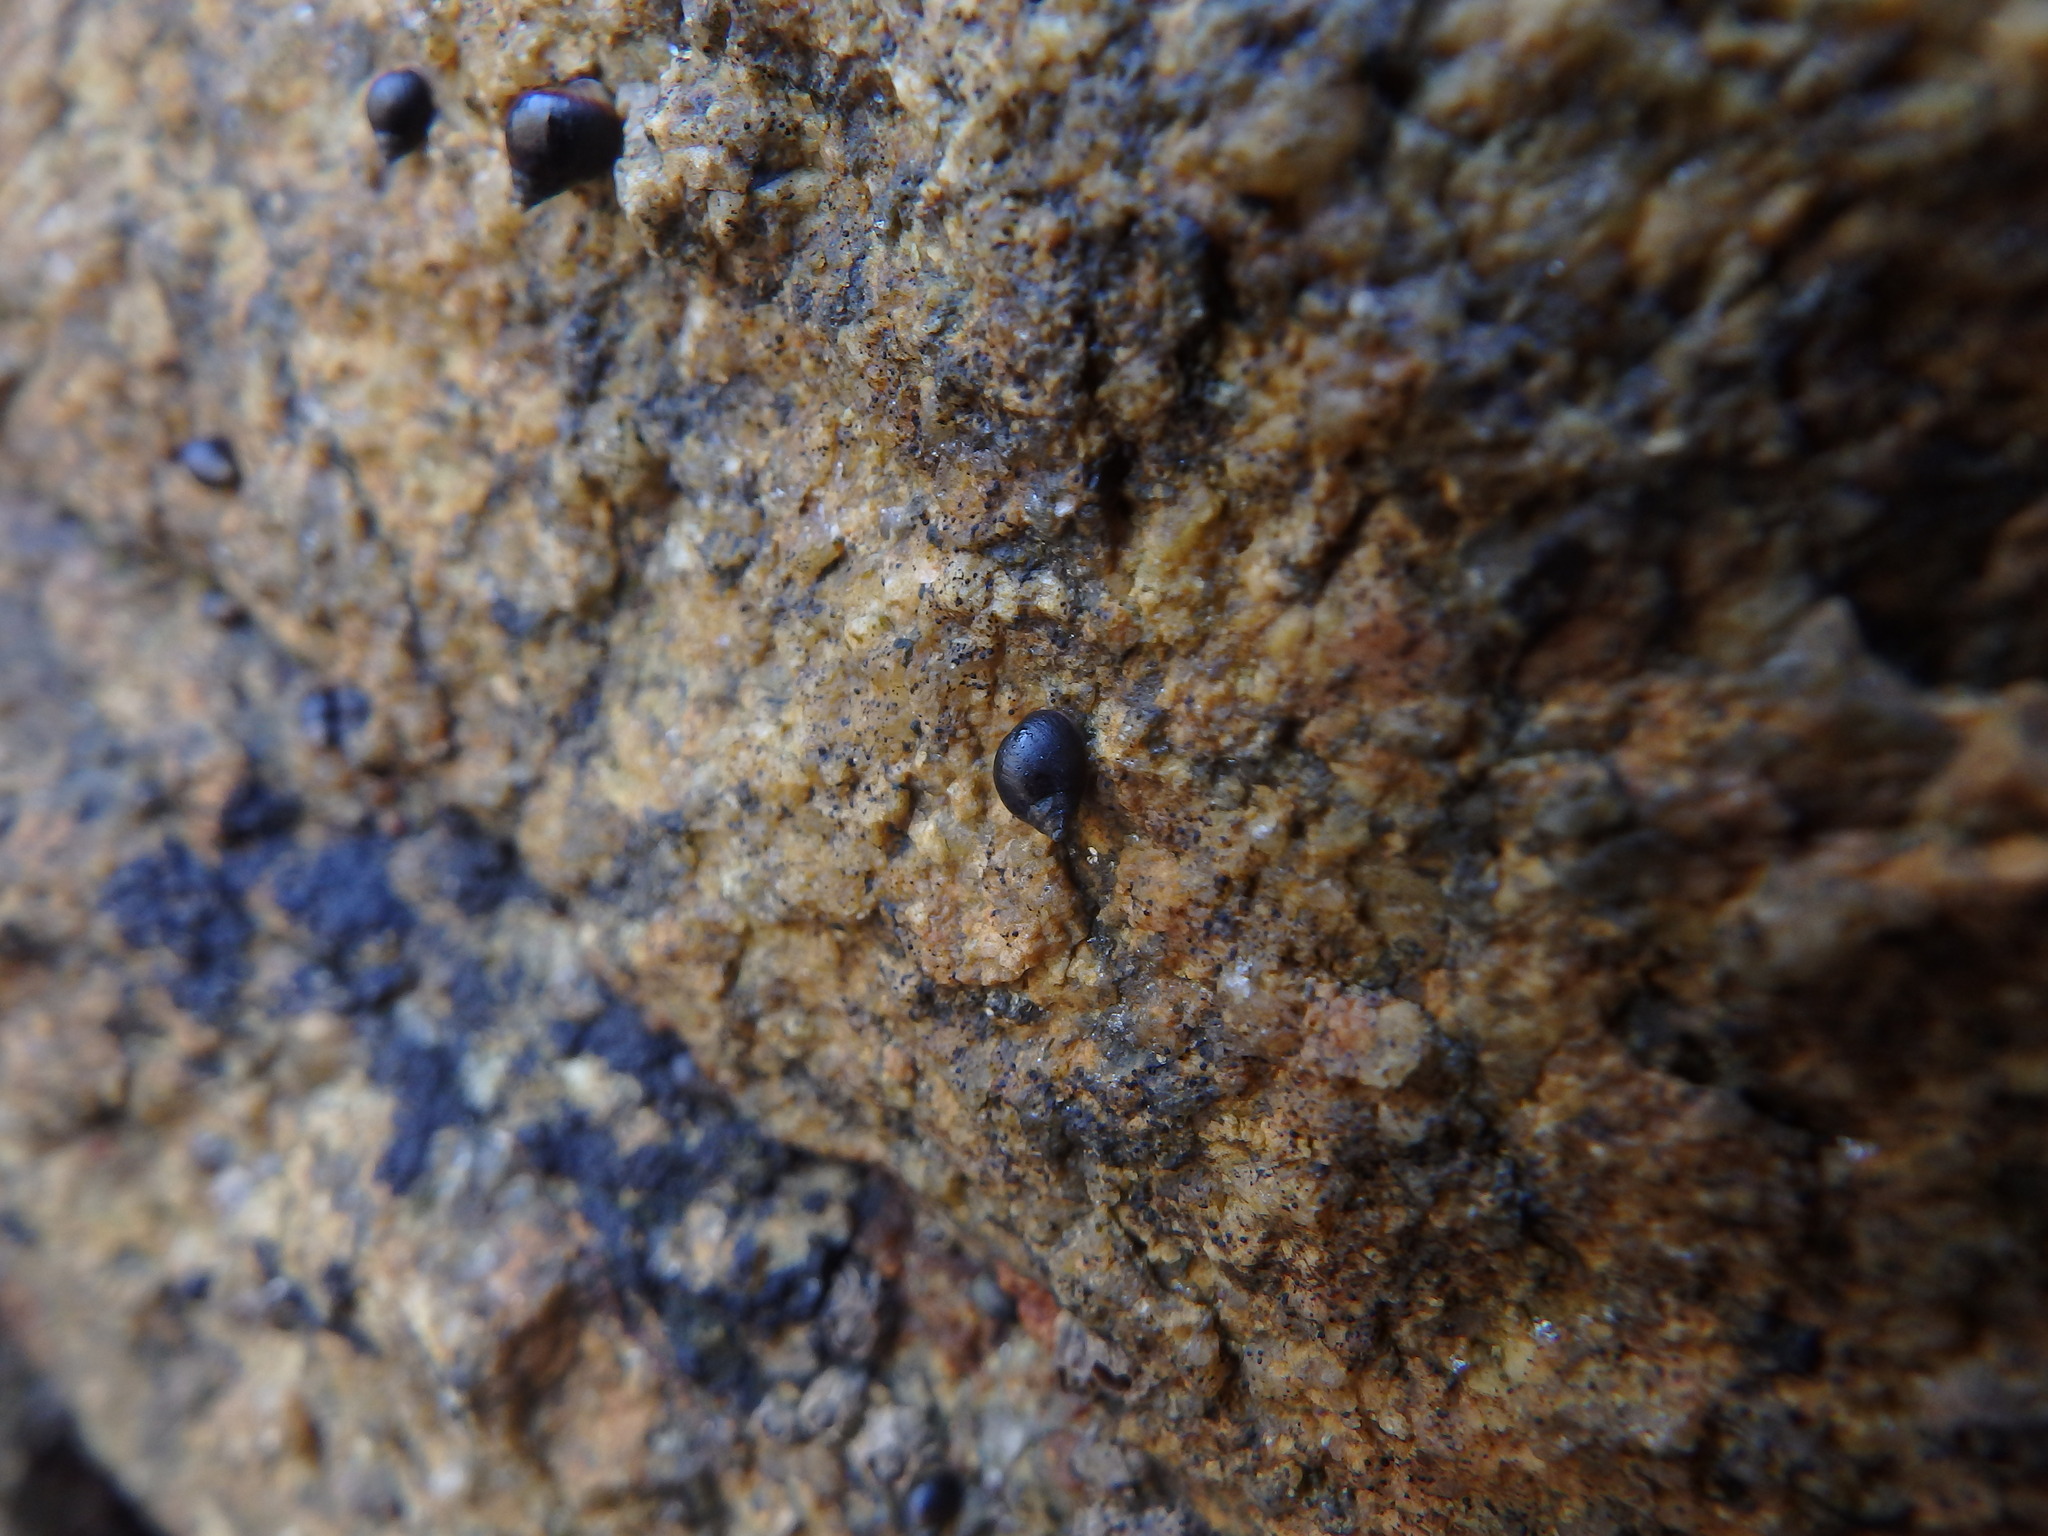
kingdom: Animalia
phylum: Mollusca
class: Gastropoda
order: Littorinimorpha
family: Littorinidae
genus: Melarhaphe
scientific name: Melarhaphe neritoides
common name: Small periwinkle
